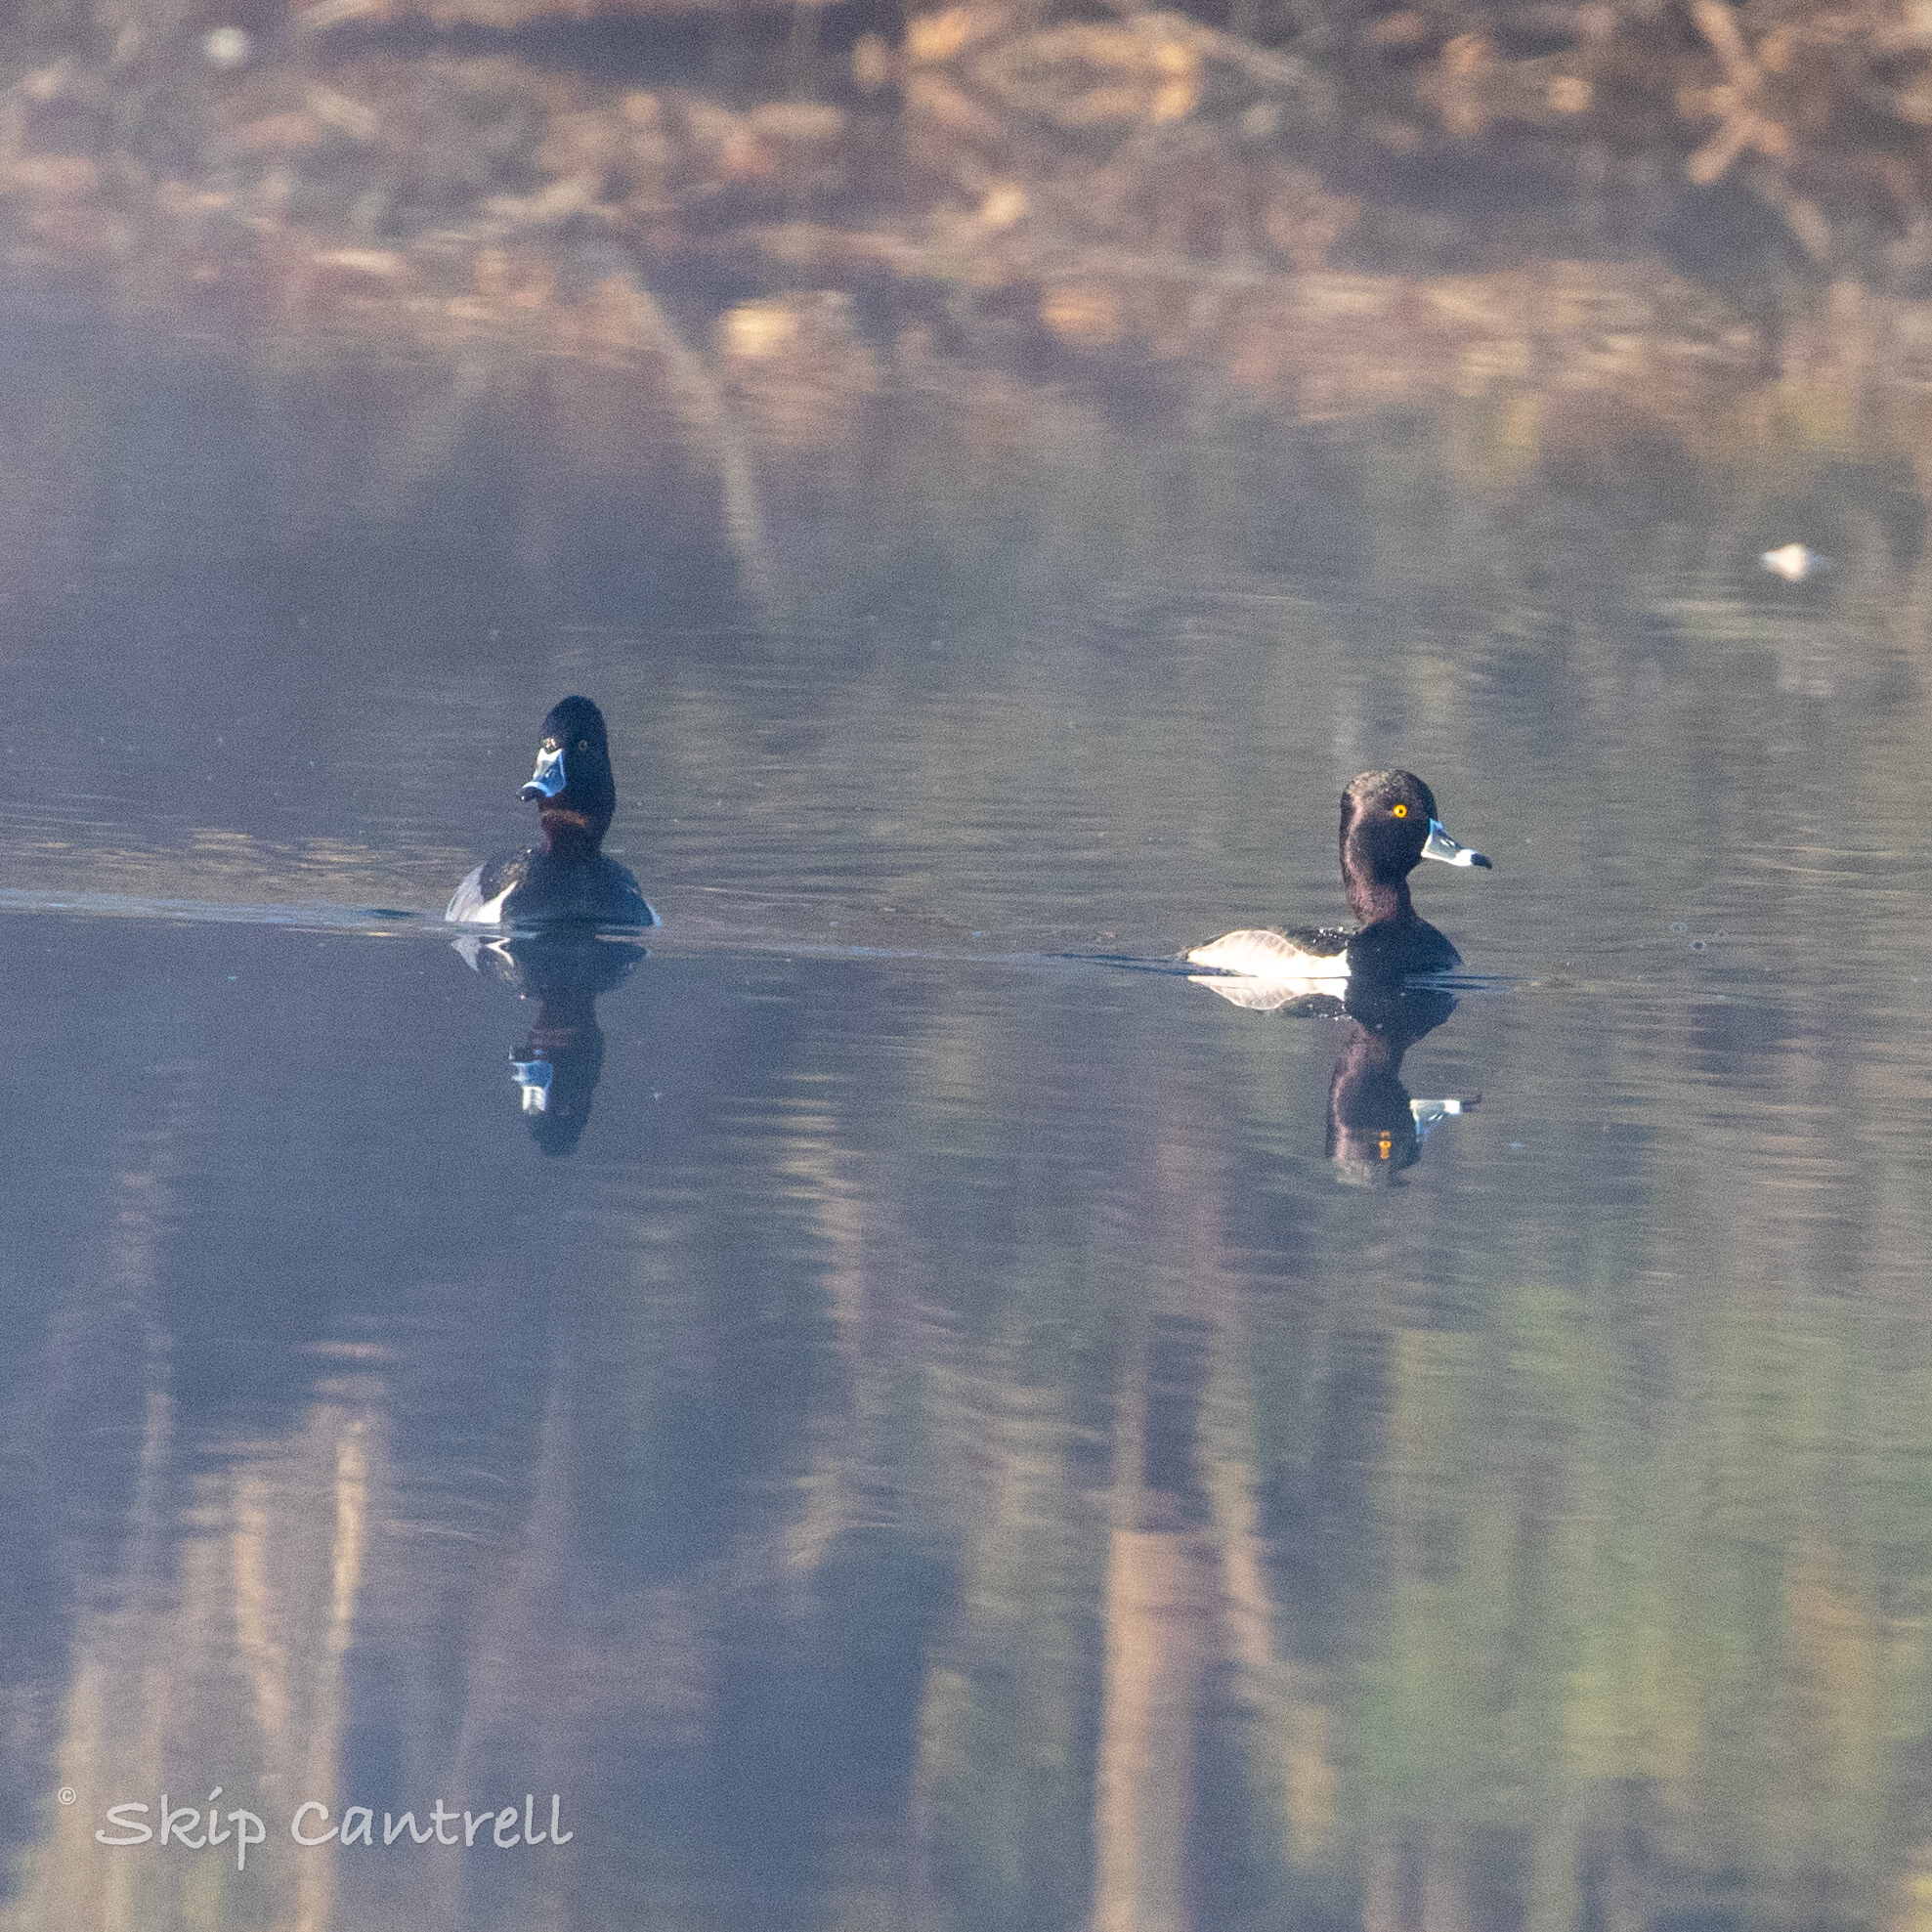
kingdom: Animalia
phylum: Chordata
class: Aves
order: Anseriformes
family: Anatidae
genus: Aythya
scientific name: Aythya collaris
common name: Ring-necked duck
